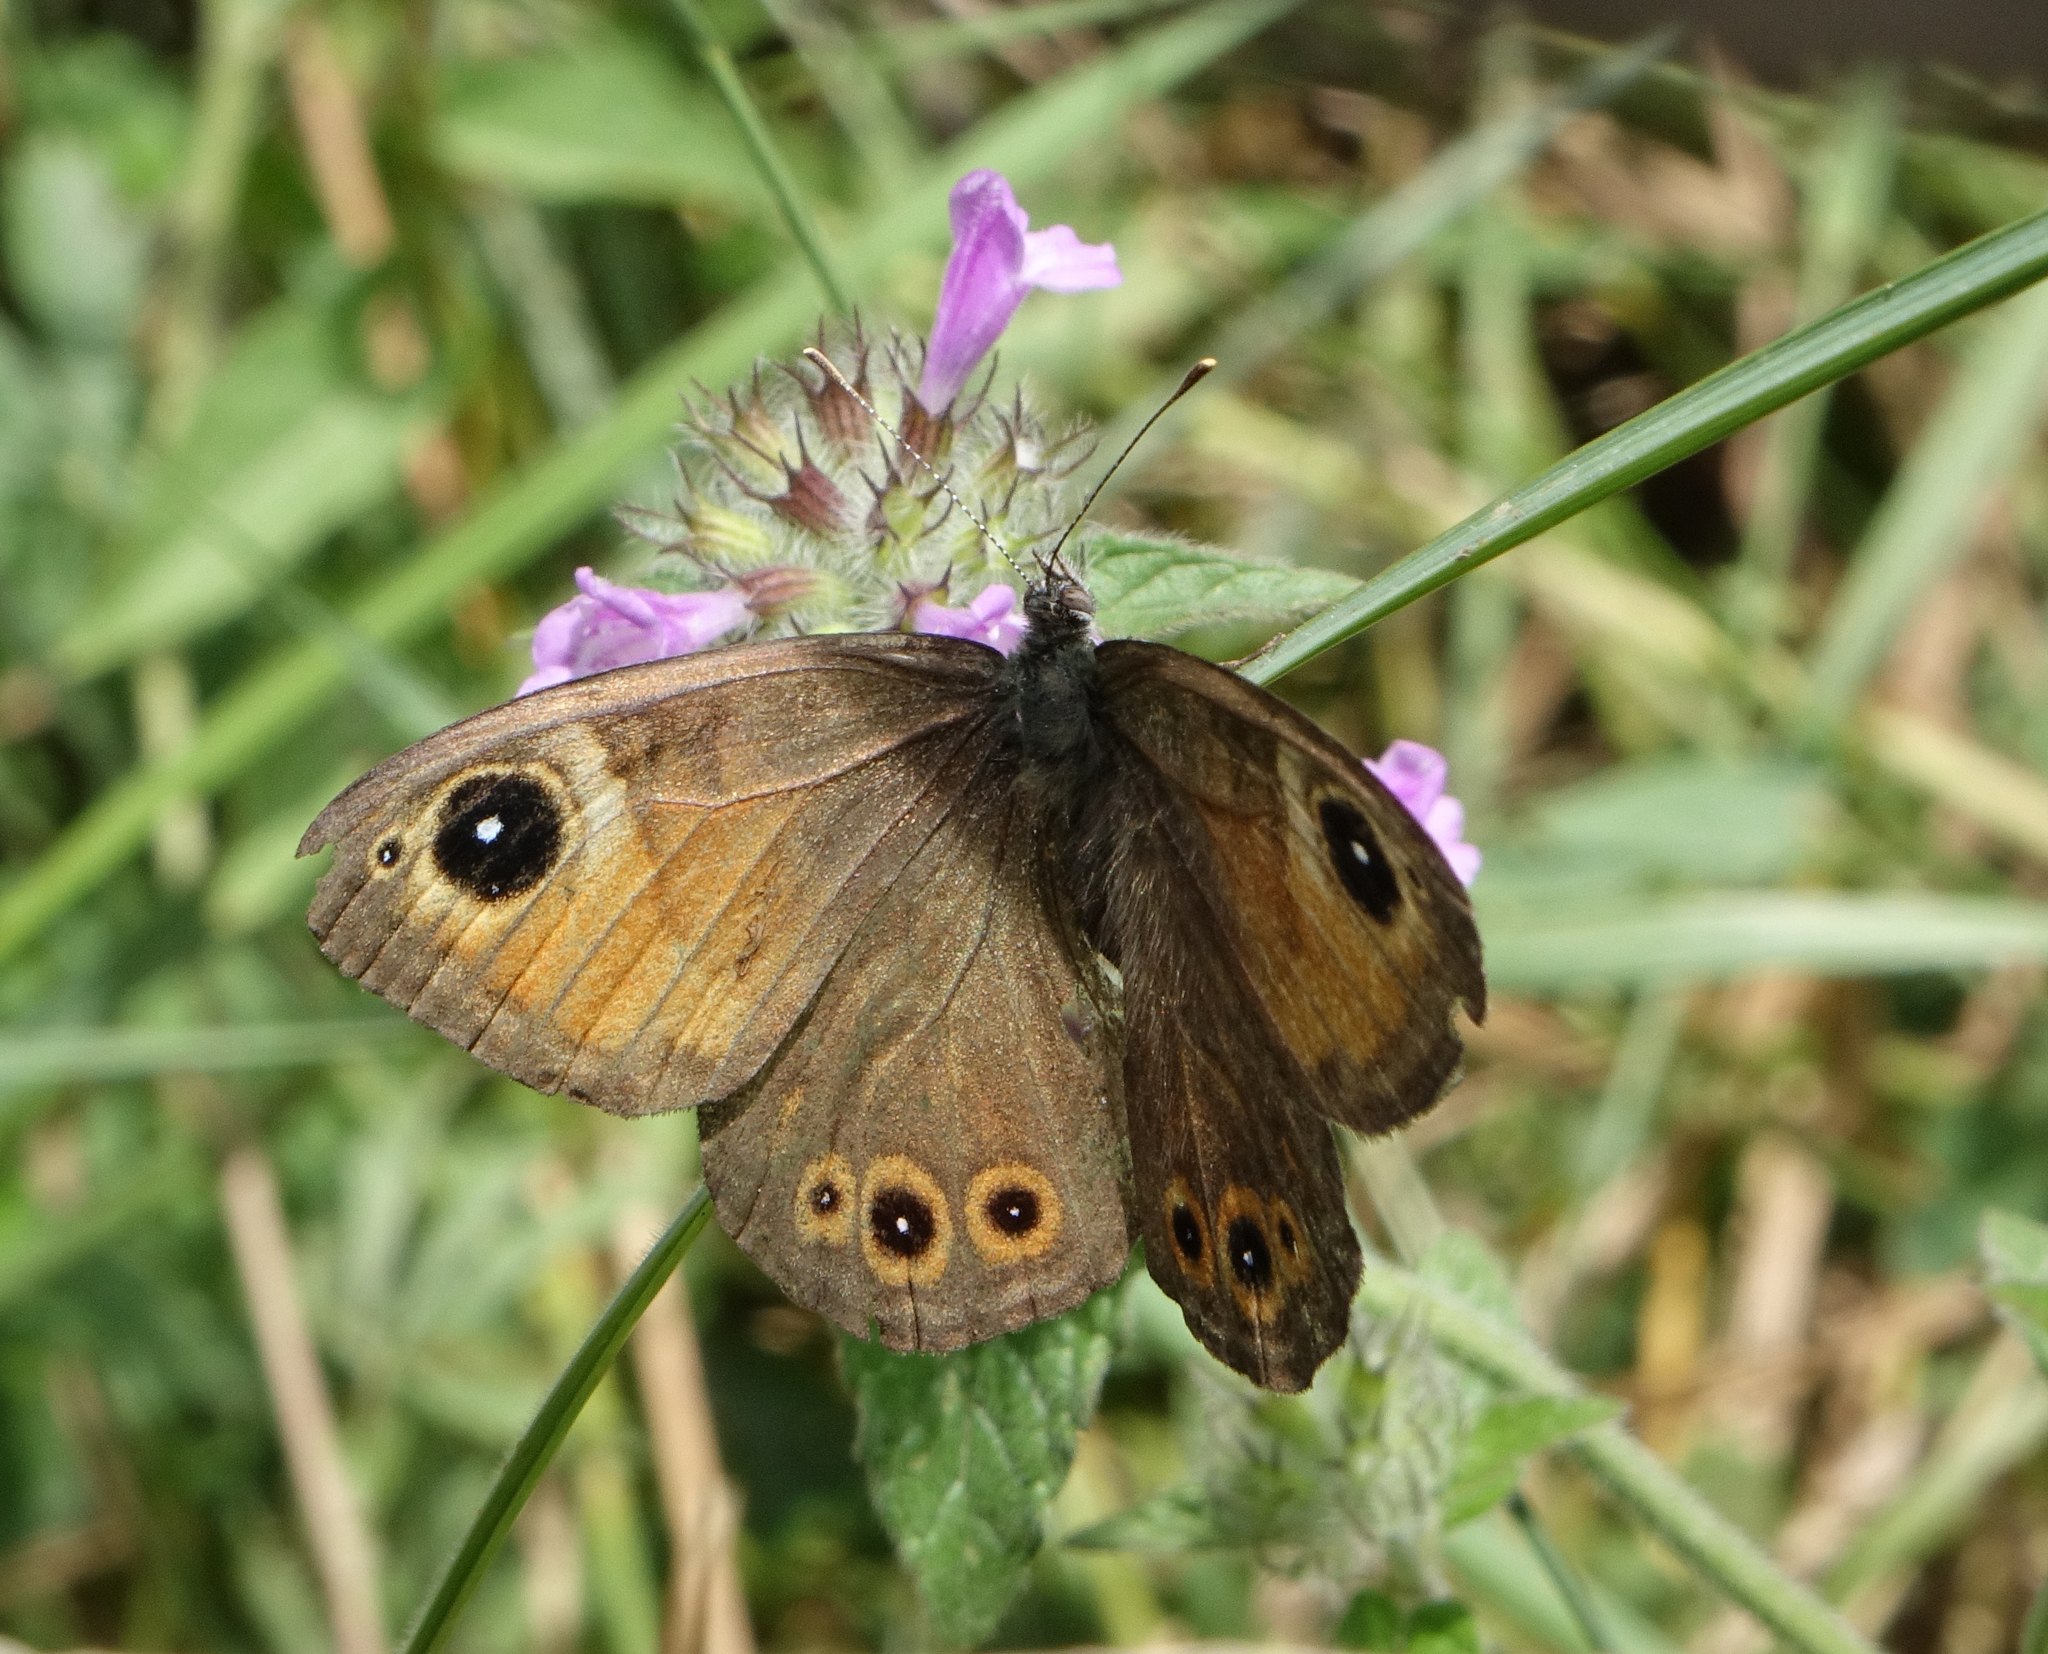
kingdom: Animalia
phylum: Arthropoda
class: Insecta
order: Lepidoptera
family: Nymphalidae
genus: Pararge
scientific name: Pararge Lasiommata maera
